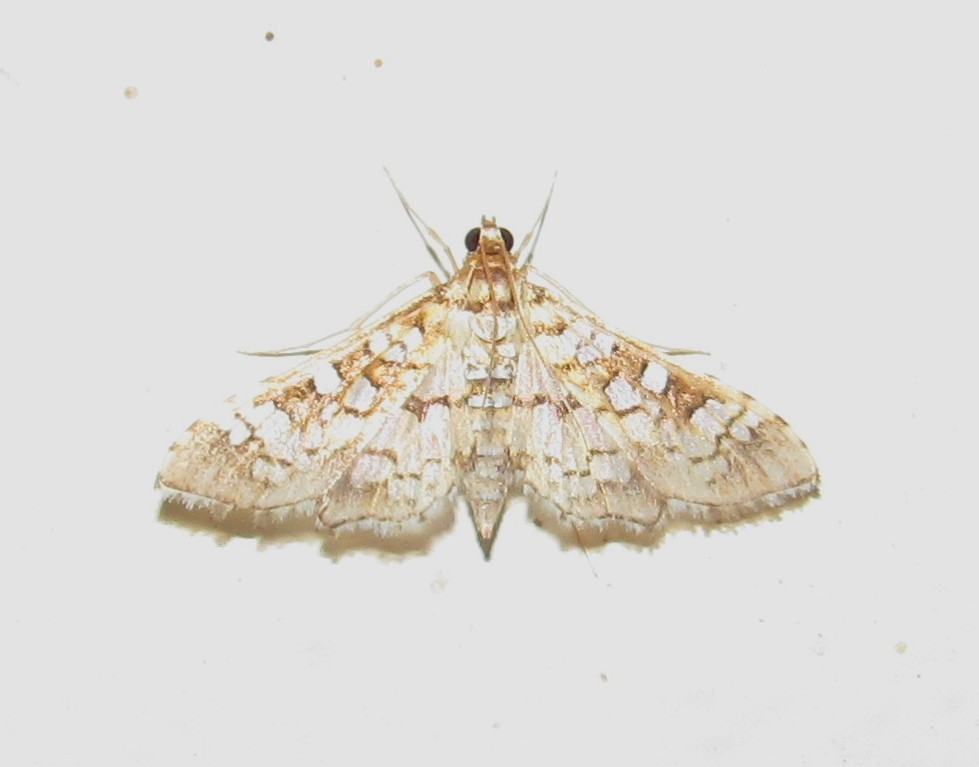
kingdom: Animalia
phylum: Arthropoda
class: Insecta
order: Lepidoptera
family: Crambidae
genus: Samea
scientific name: Samea ecclesialis
